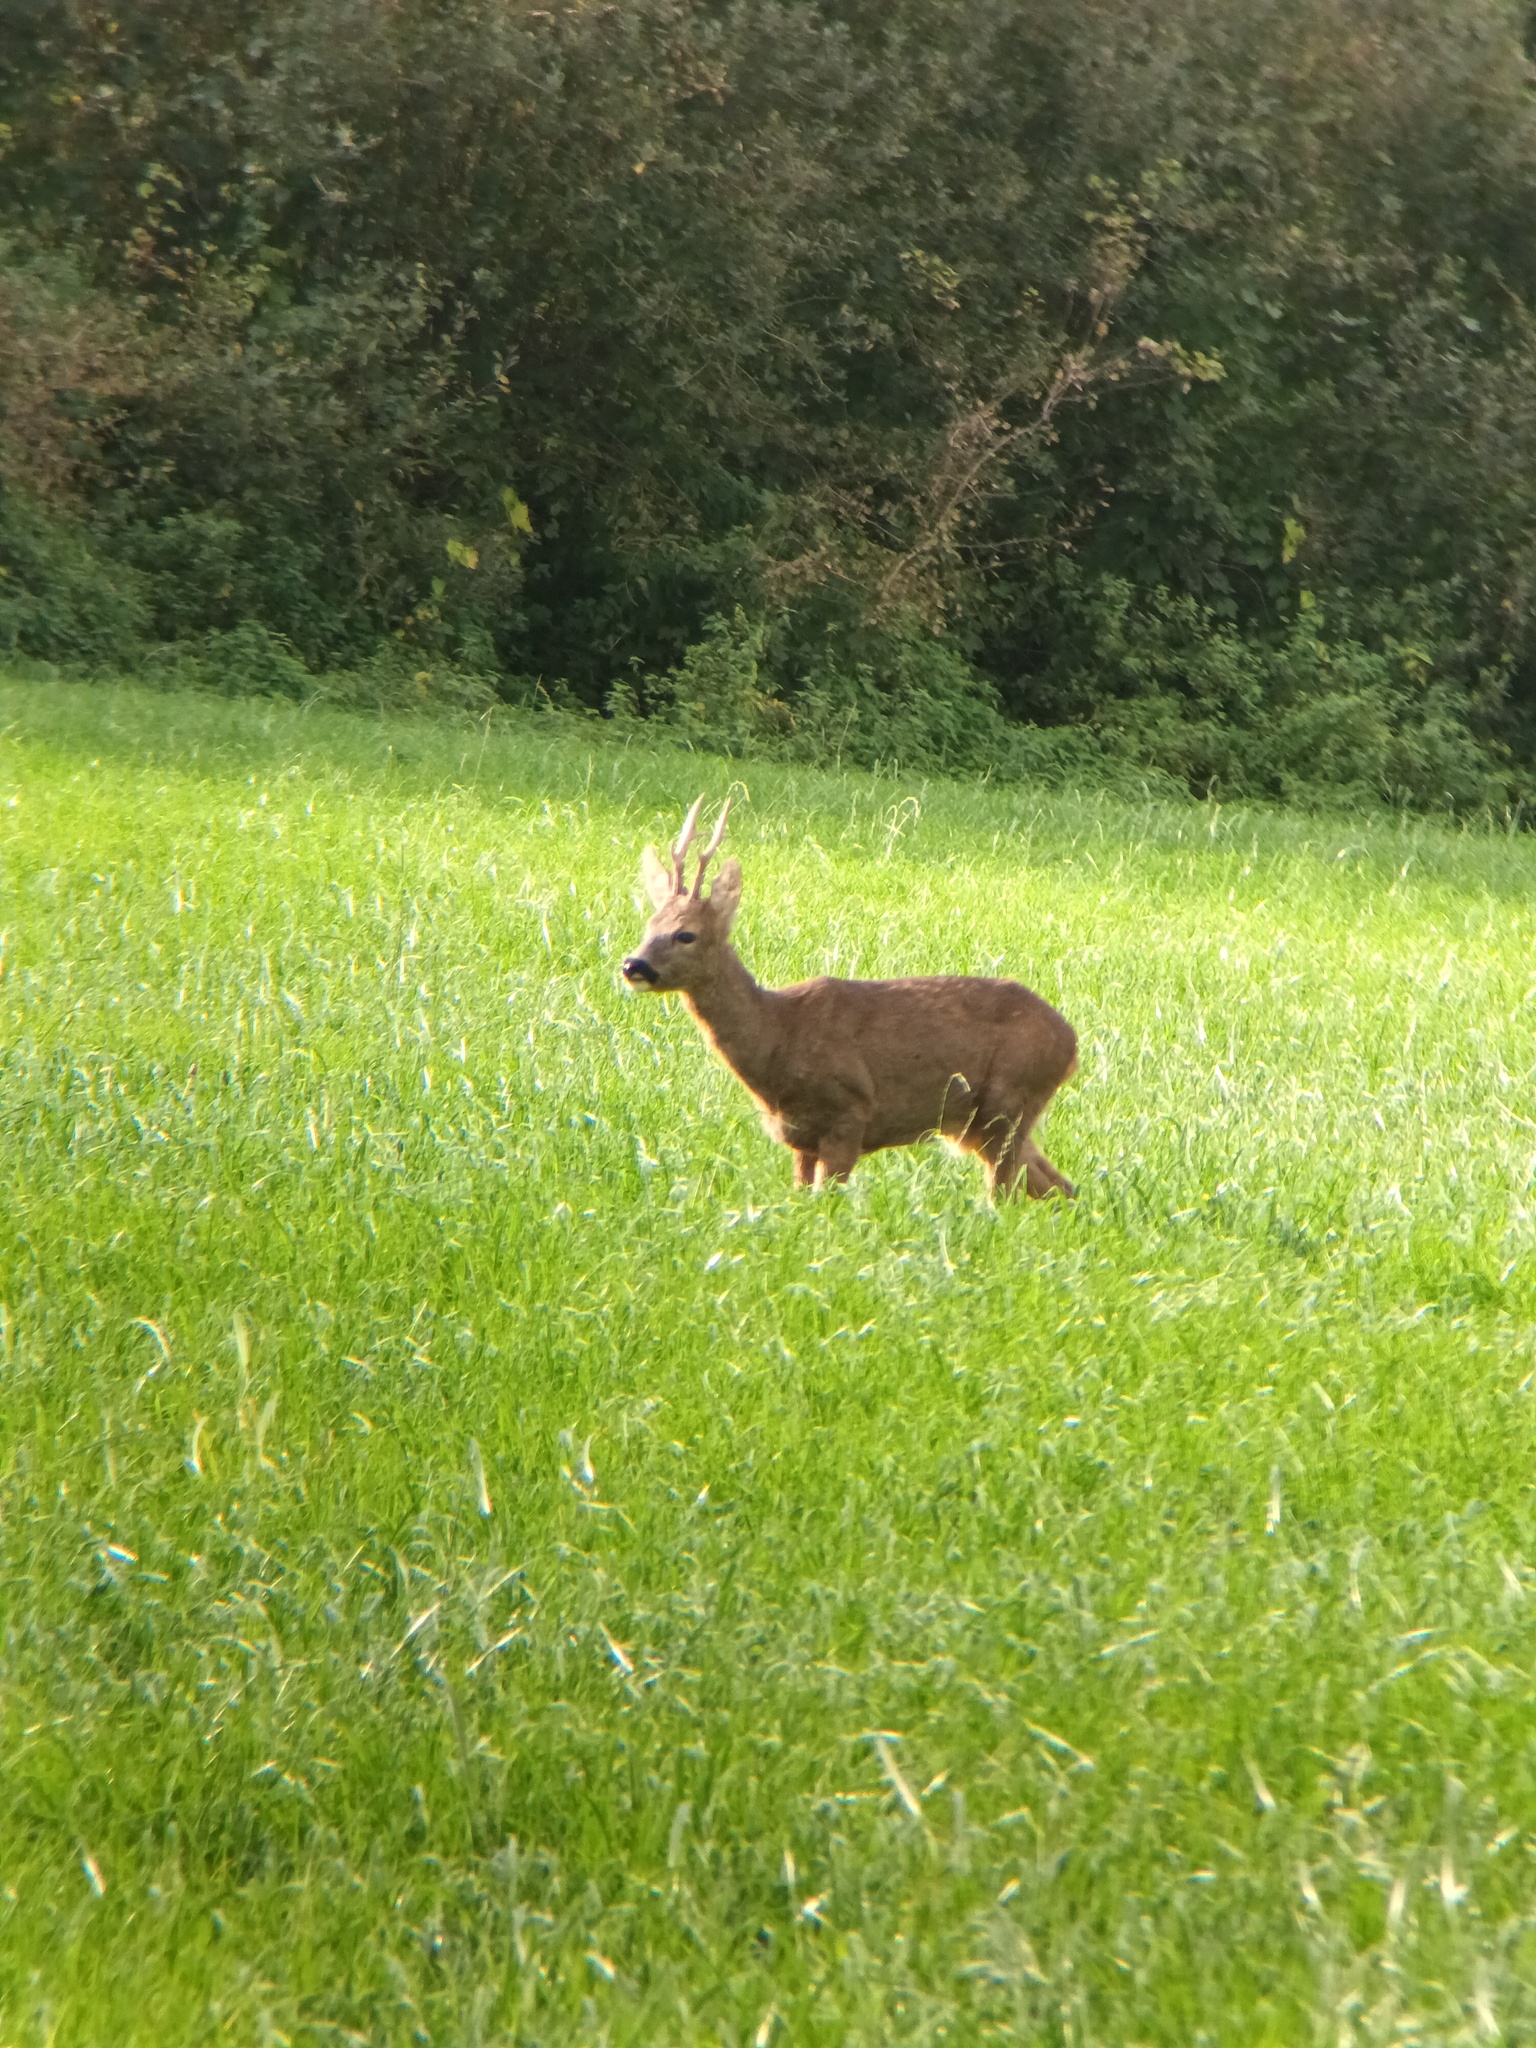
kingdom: Animalia
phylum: Chordata
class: Mammalia
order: Artiodactyla
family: Cervidae
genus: Capreolus
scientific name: Capreolus capreolus
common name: Western roe deer
